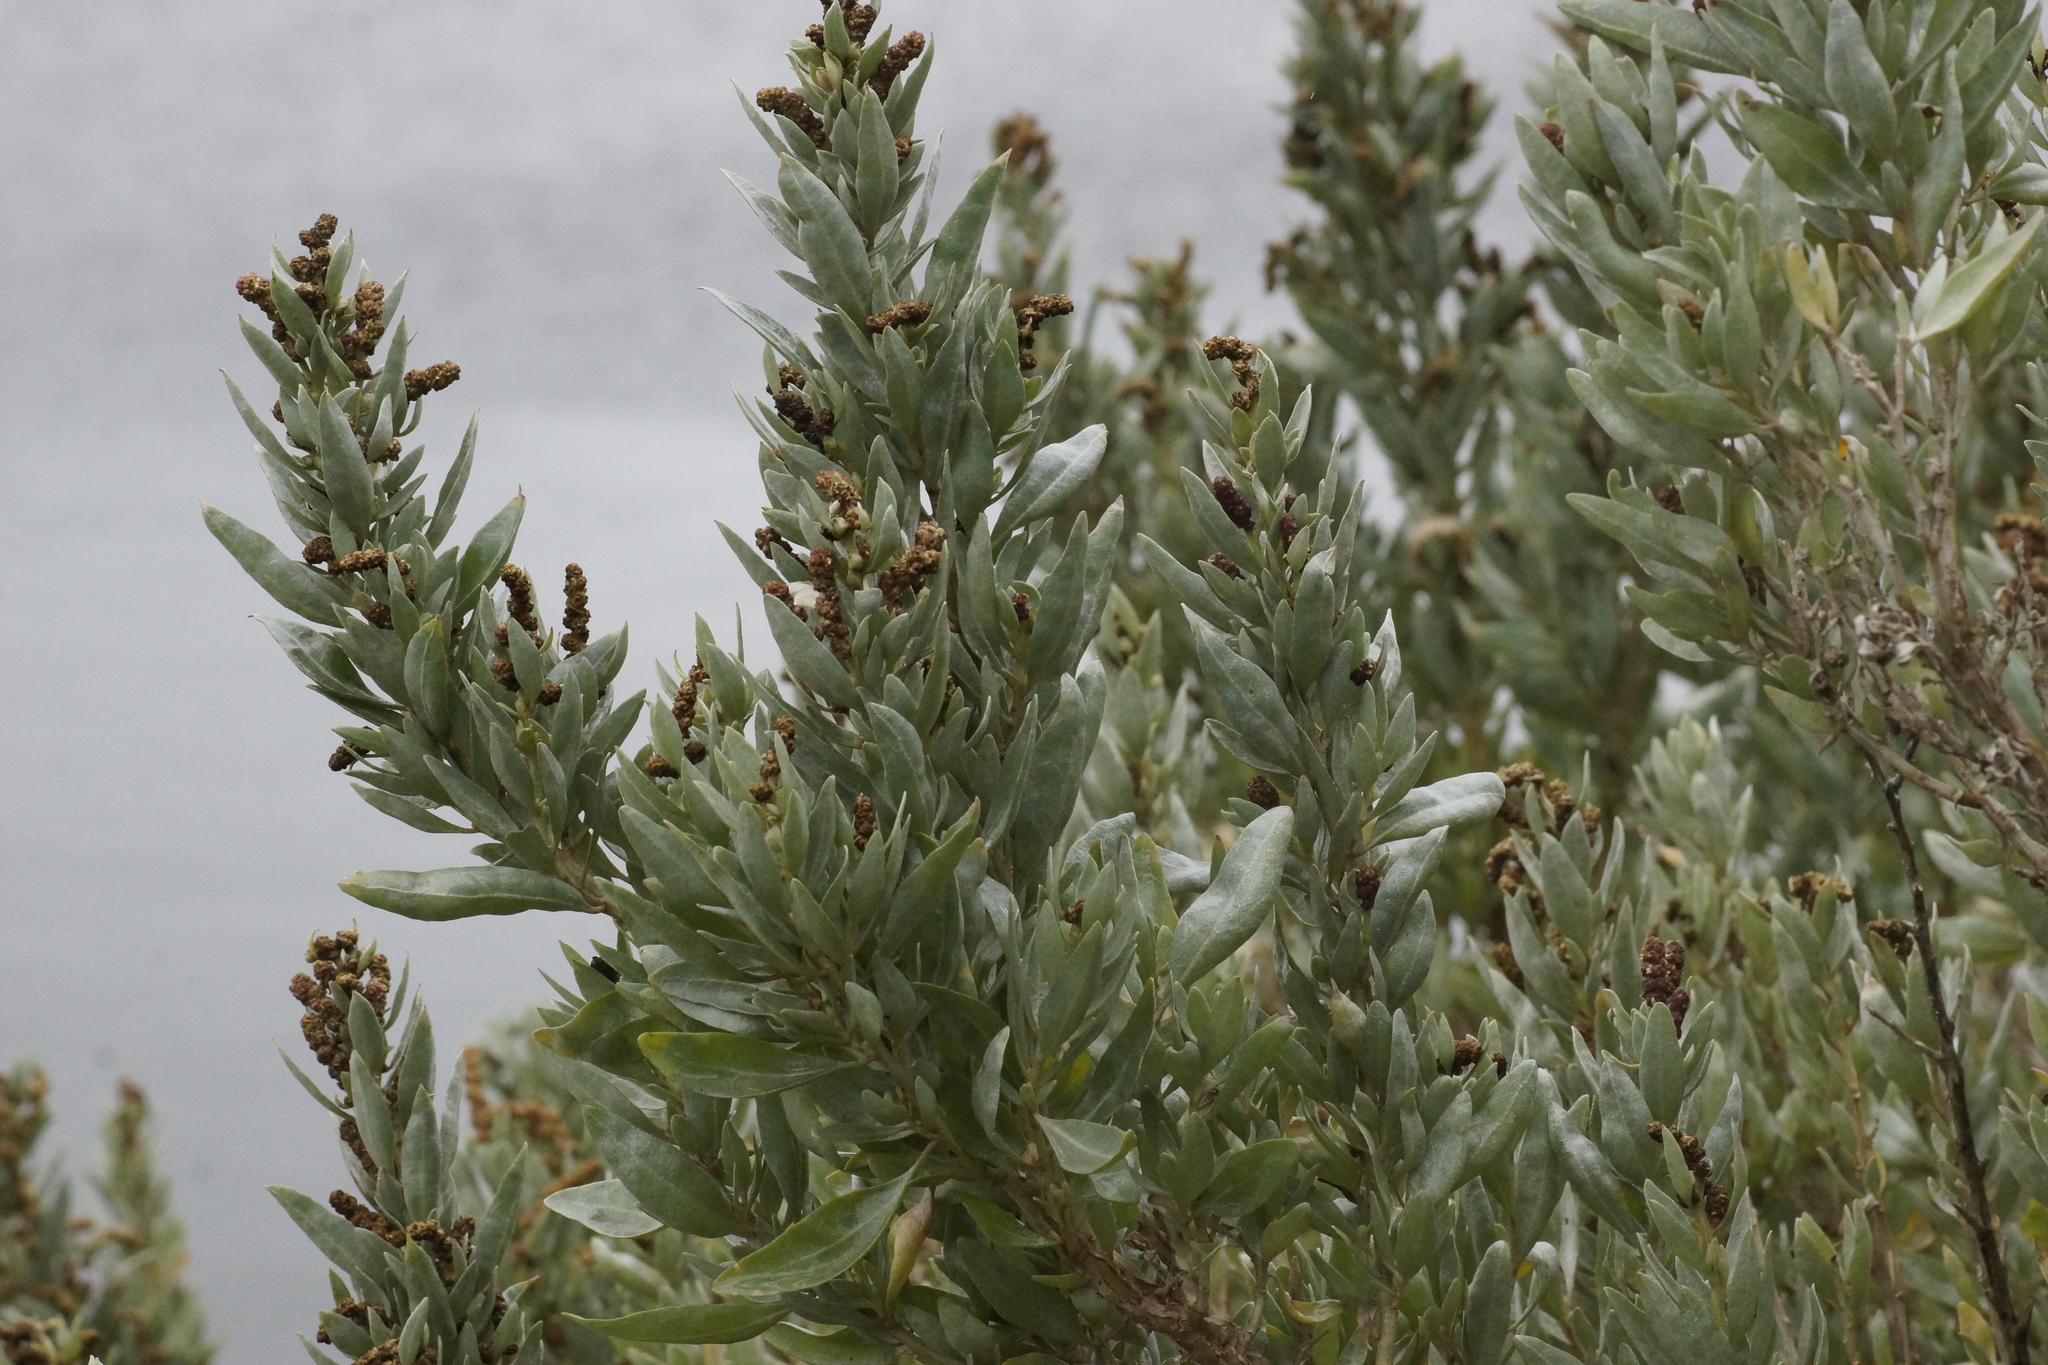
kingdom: Plantae
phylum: Tracheophyta
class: Magnoliopsida
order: Caryophyllales
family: Amaranthaceae
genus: Atriplex
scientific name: Atriplex cinerea
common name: Grey saltbush
